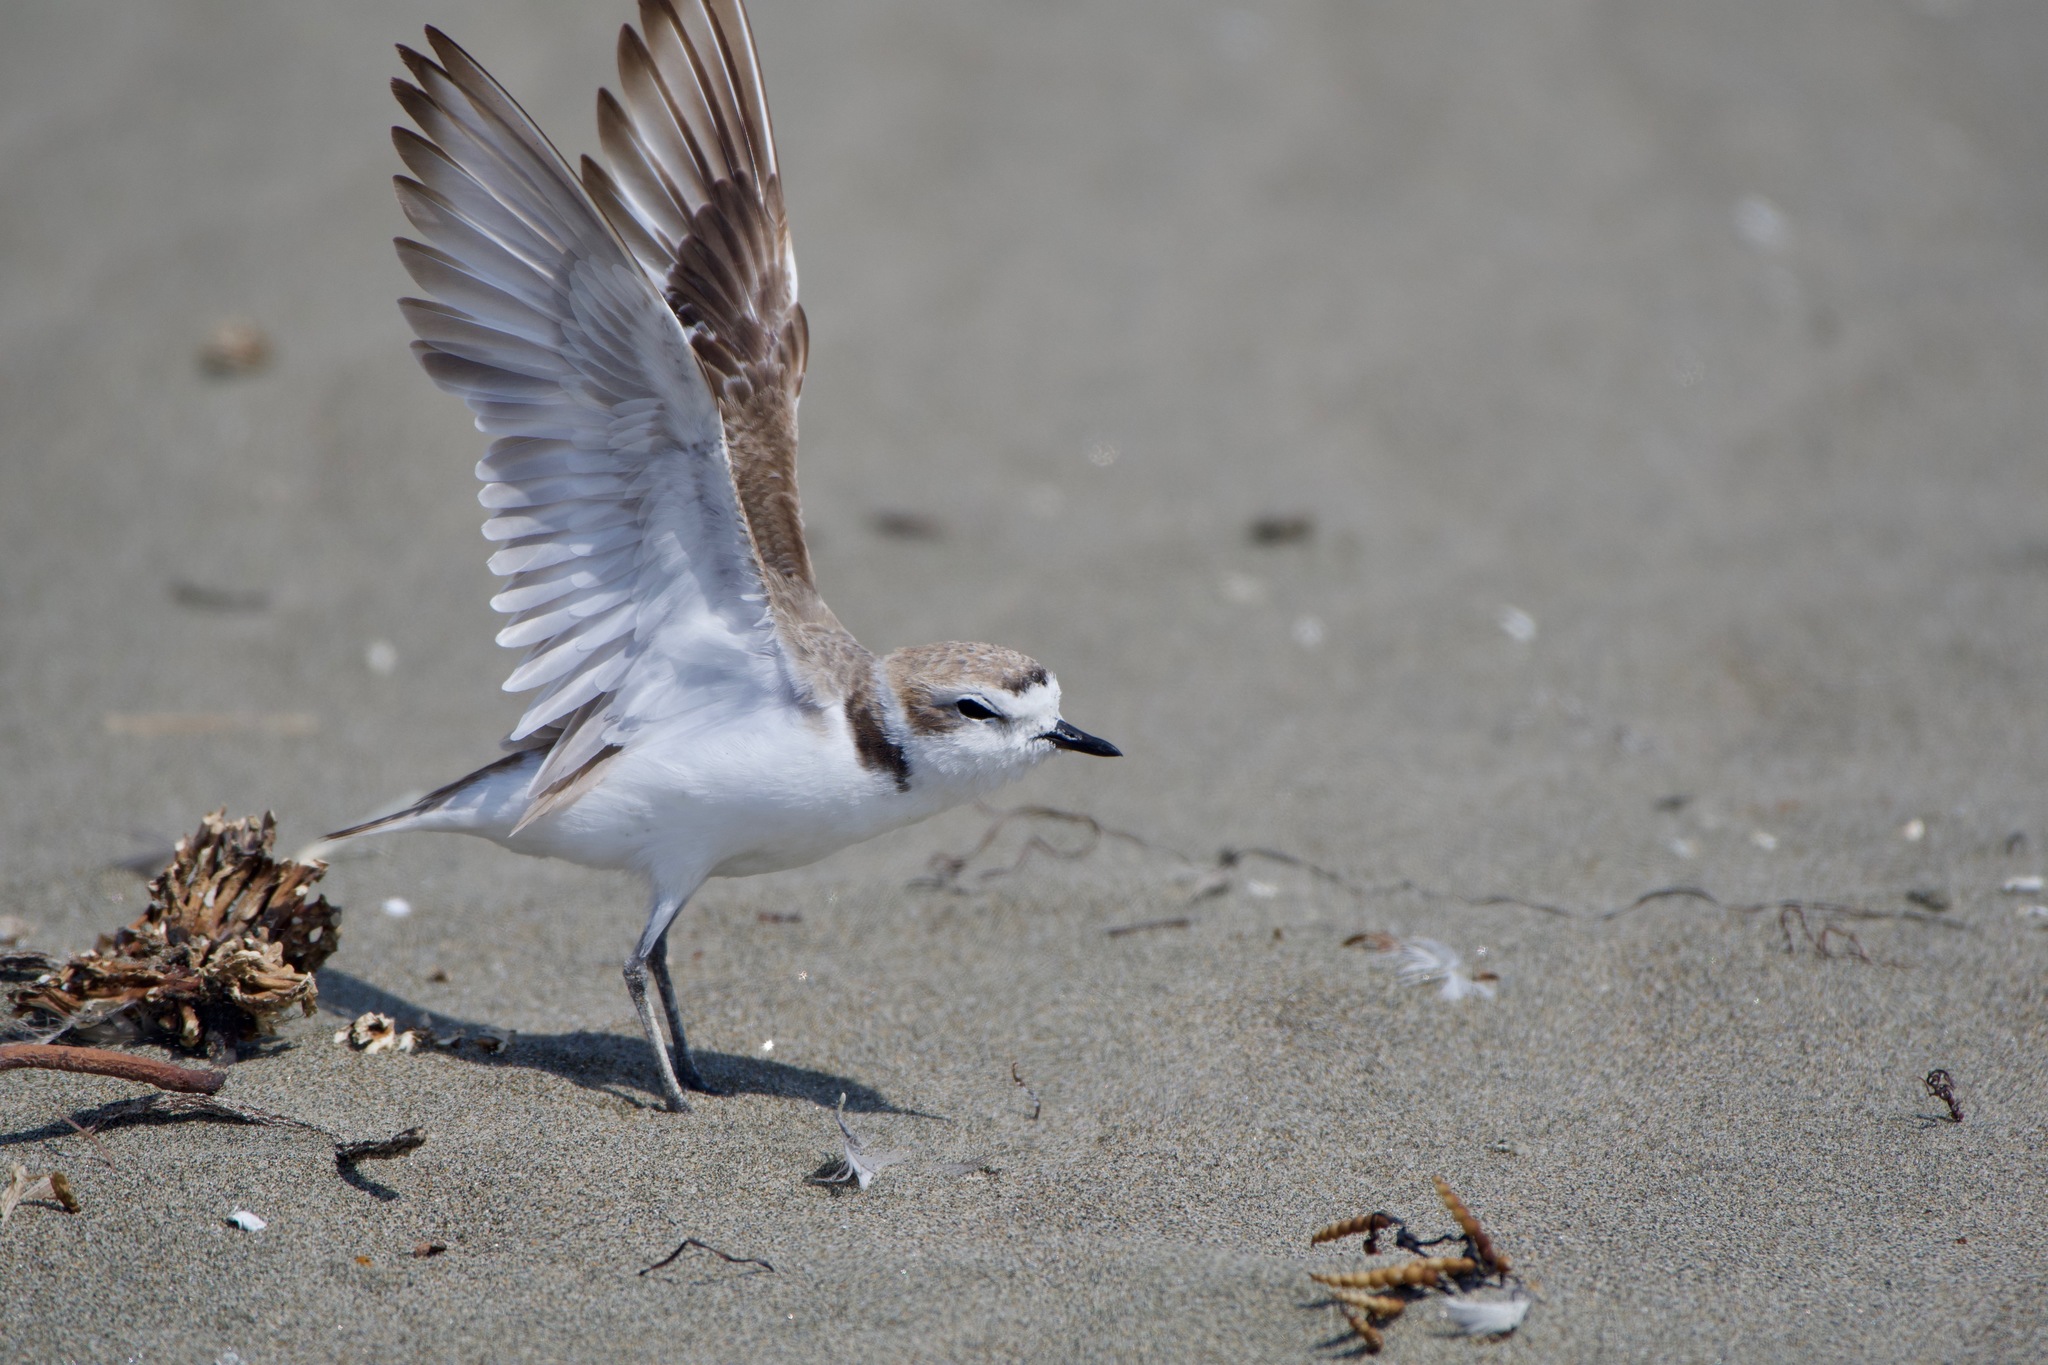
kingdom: Animalia
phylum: Chordata
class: Aves
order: Charadriiformes
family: Charadriidae
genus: Anarhynchus
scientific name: Anarhynchus
